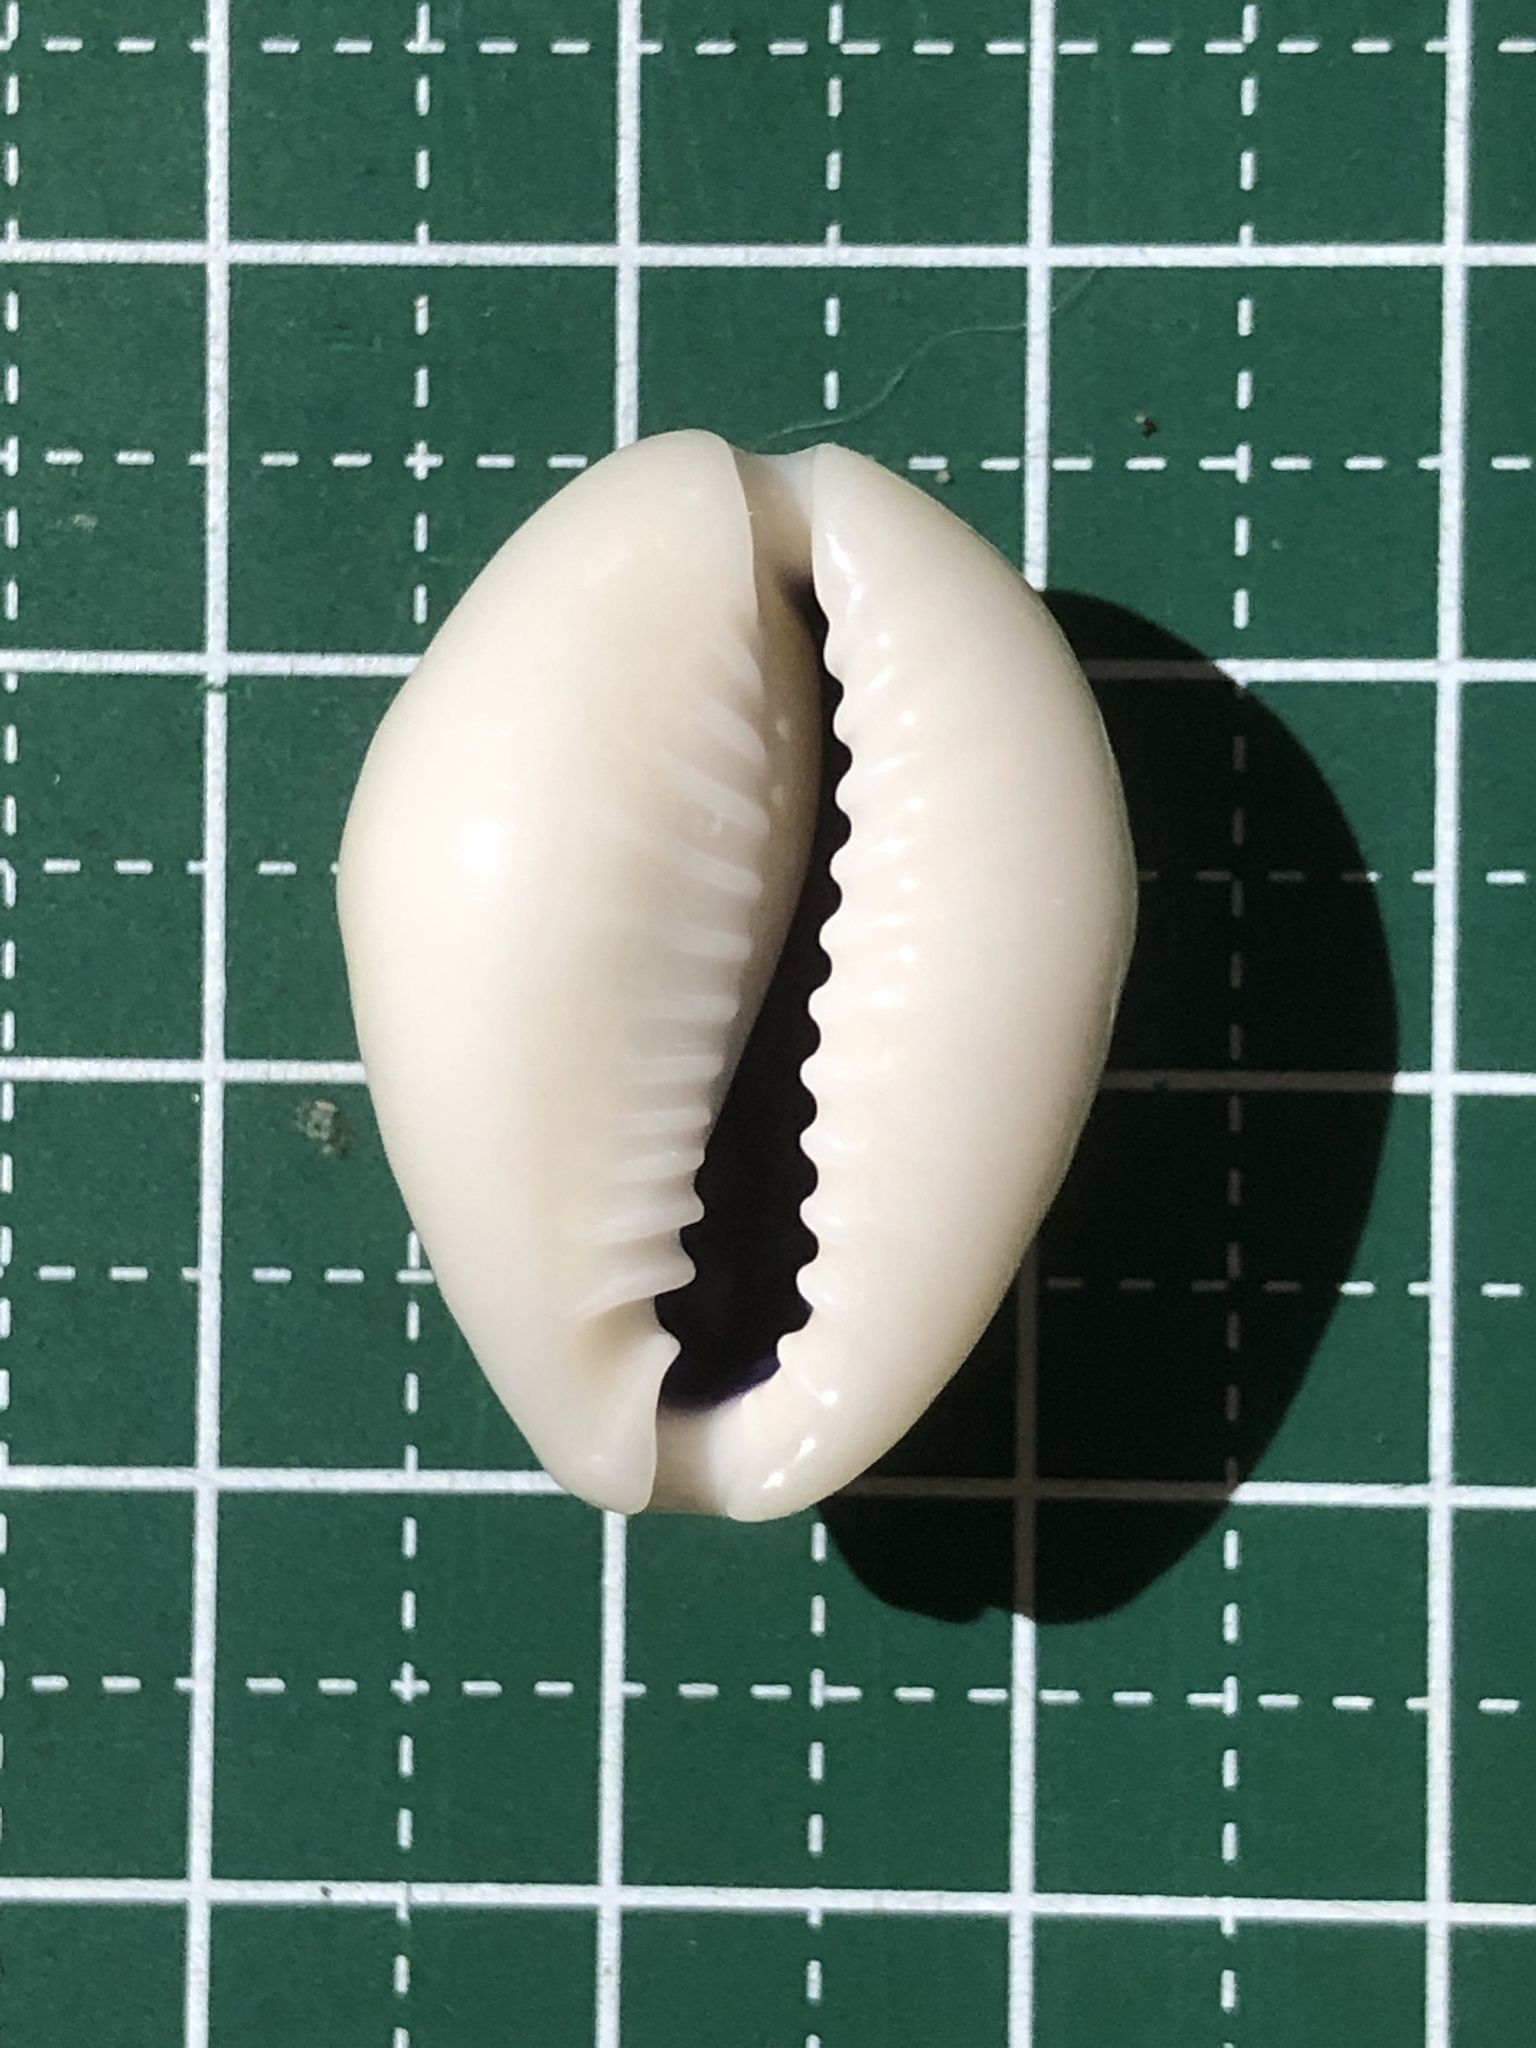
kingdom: Animalia
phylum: Mollusca
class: Gastropoda
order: Littorinimorpha
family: Cypraeidae
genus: Monetaria
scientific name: Monetaria annulus
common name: Ring cowrie
